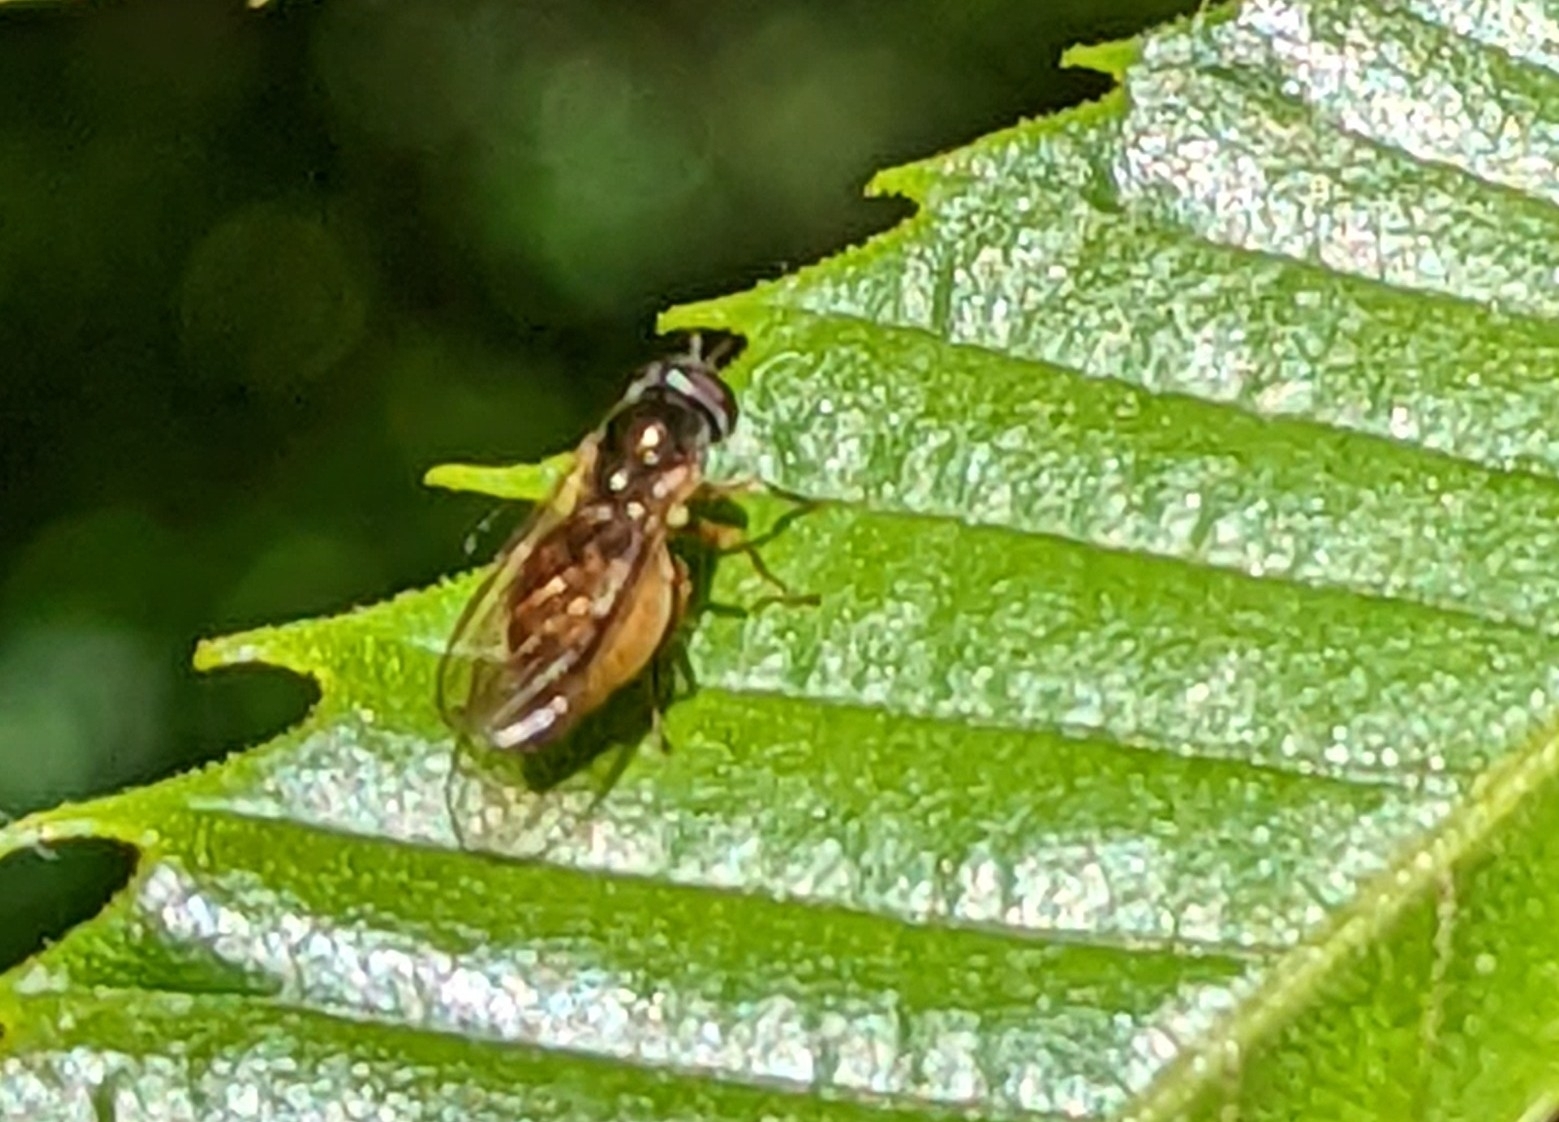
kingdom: Animalia
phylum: Arthropoda
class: Insecta
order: Diptera
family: Syrphidae
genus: Melanostoma
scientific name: Melanostoma
